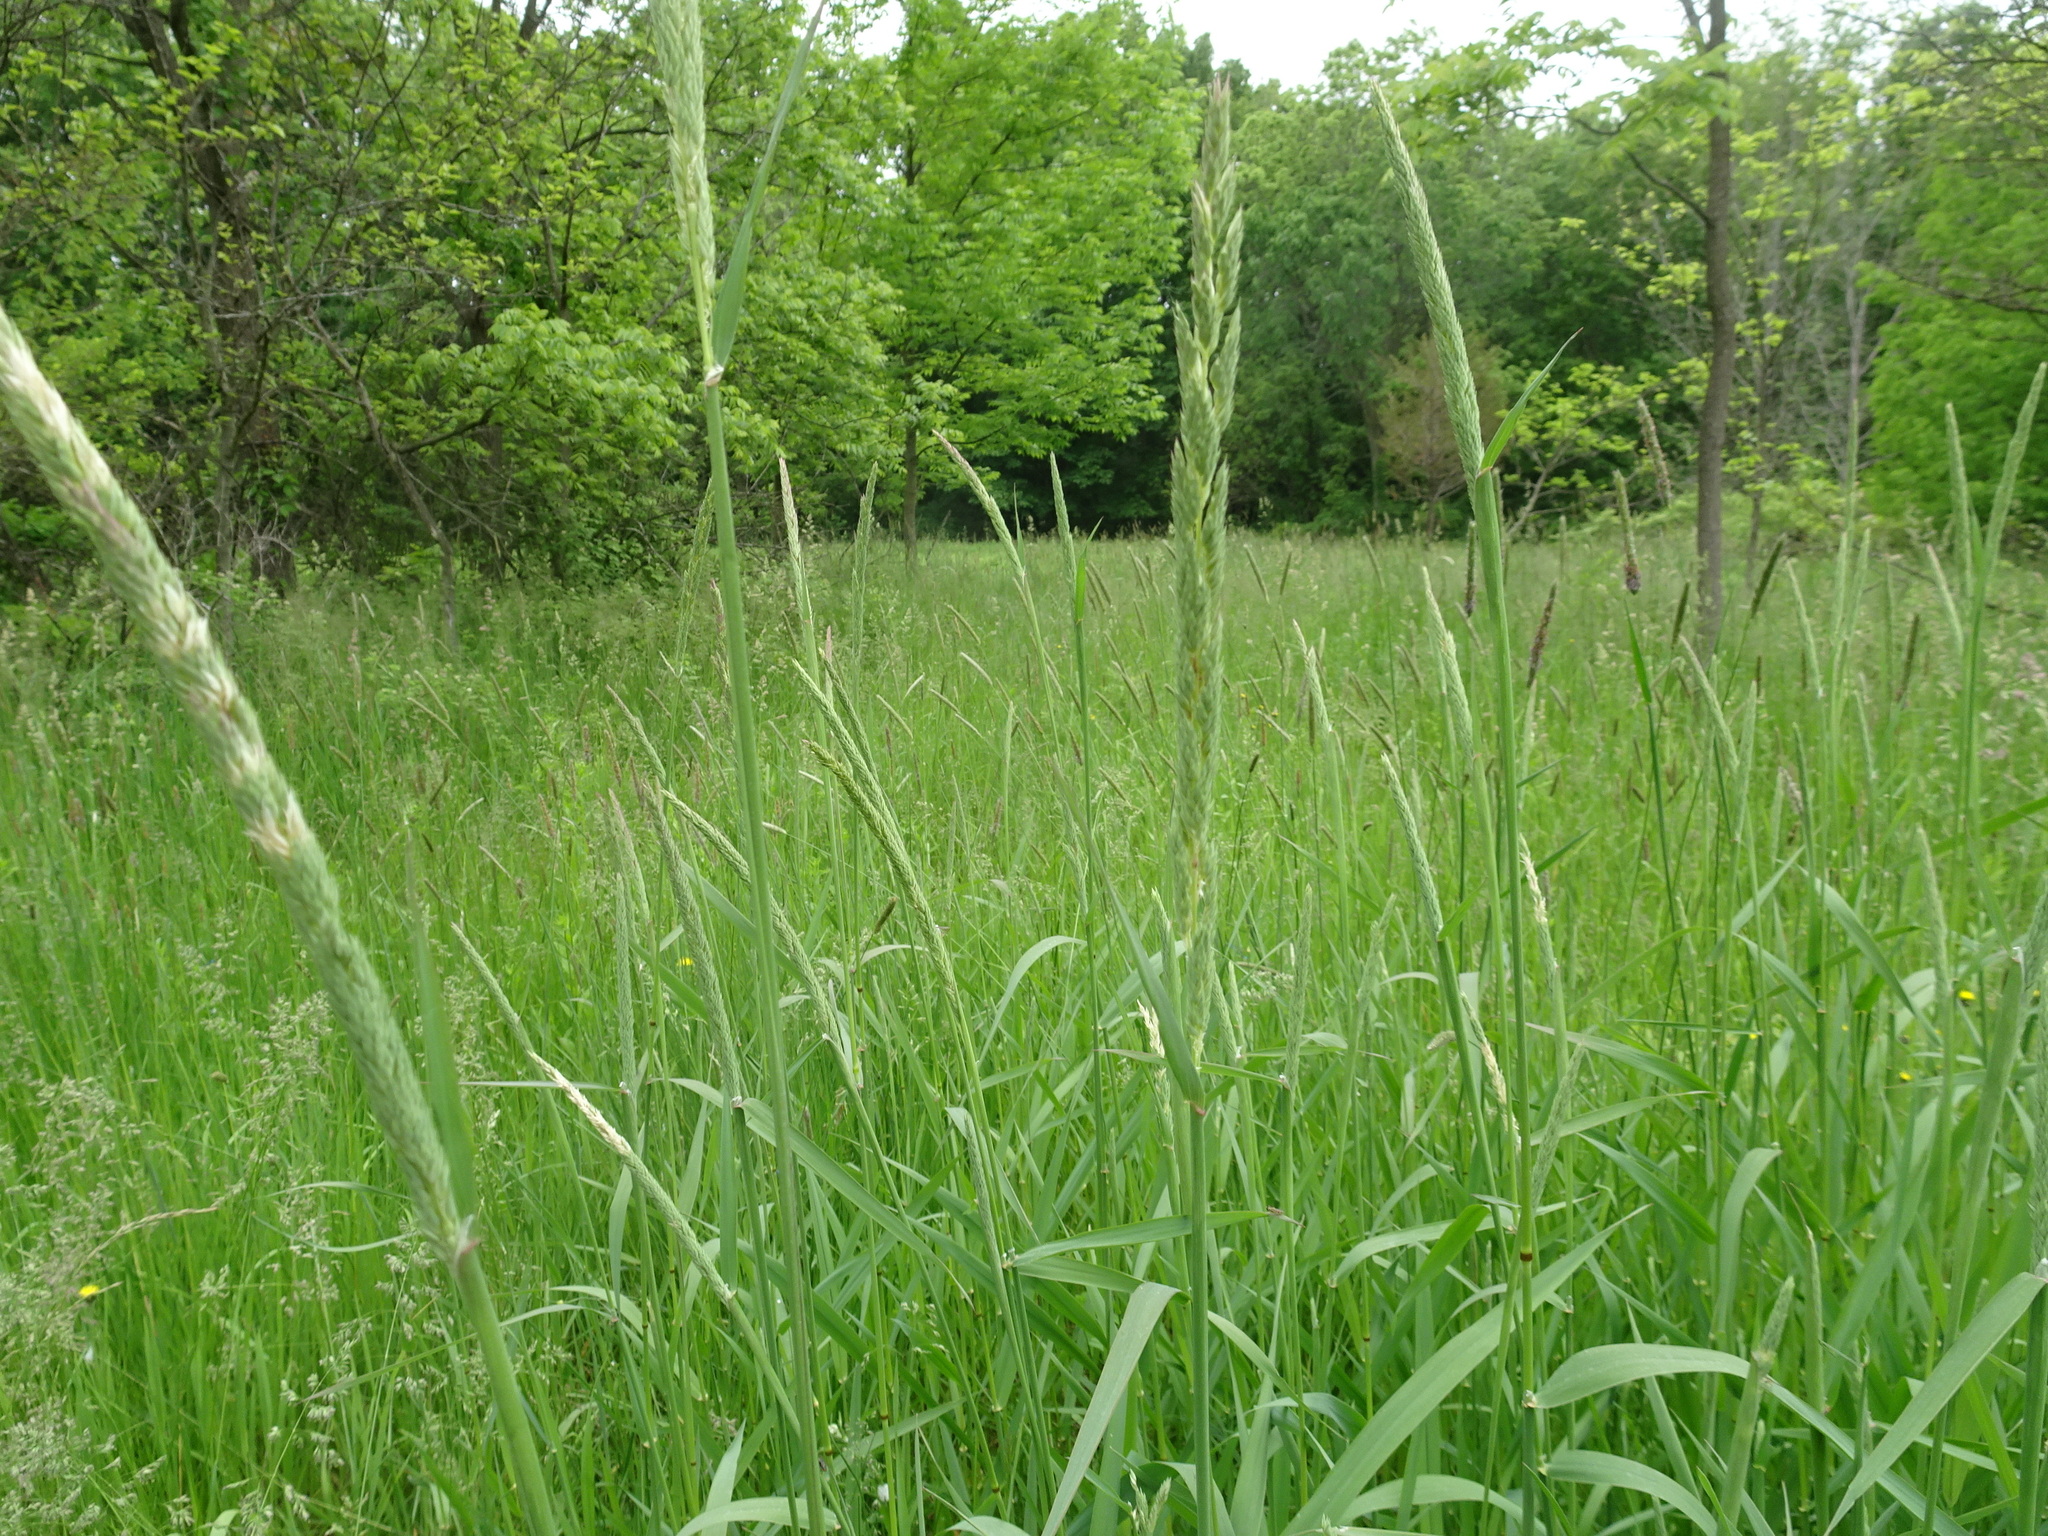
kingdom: Plantae
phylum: Tracheophyta
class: Liliopsida
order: Poales
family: Poaceae
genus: Phalaris
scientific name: Phalaris arundinacea
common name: Reed canary-grass
